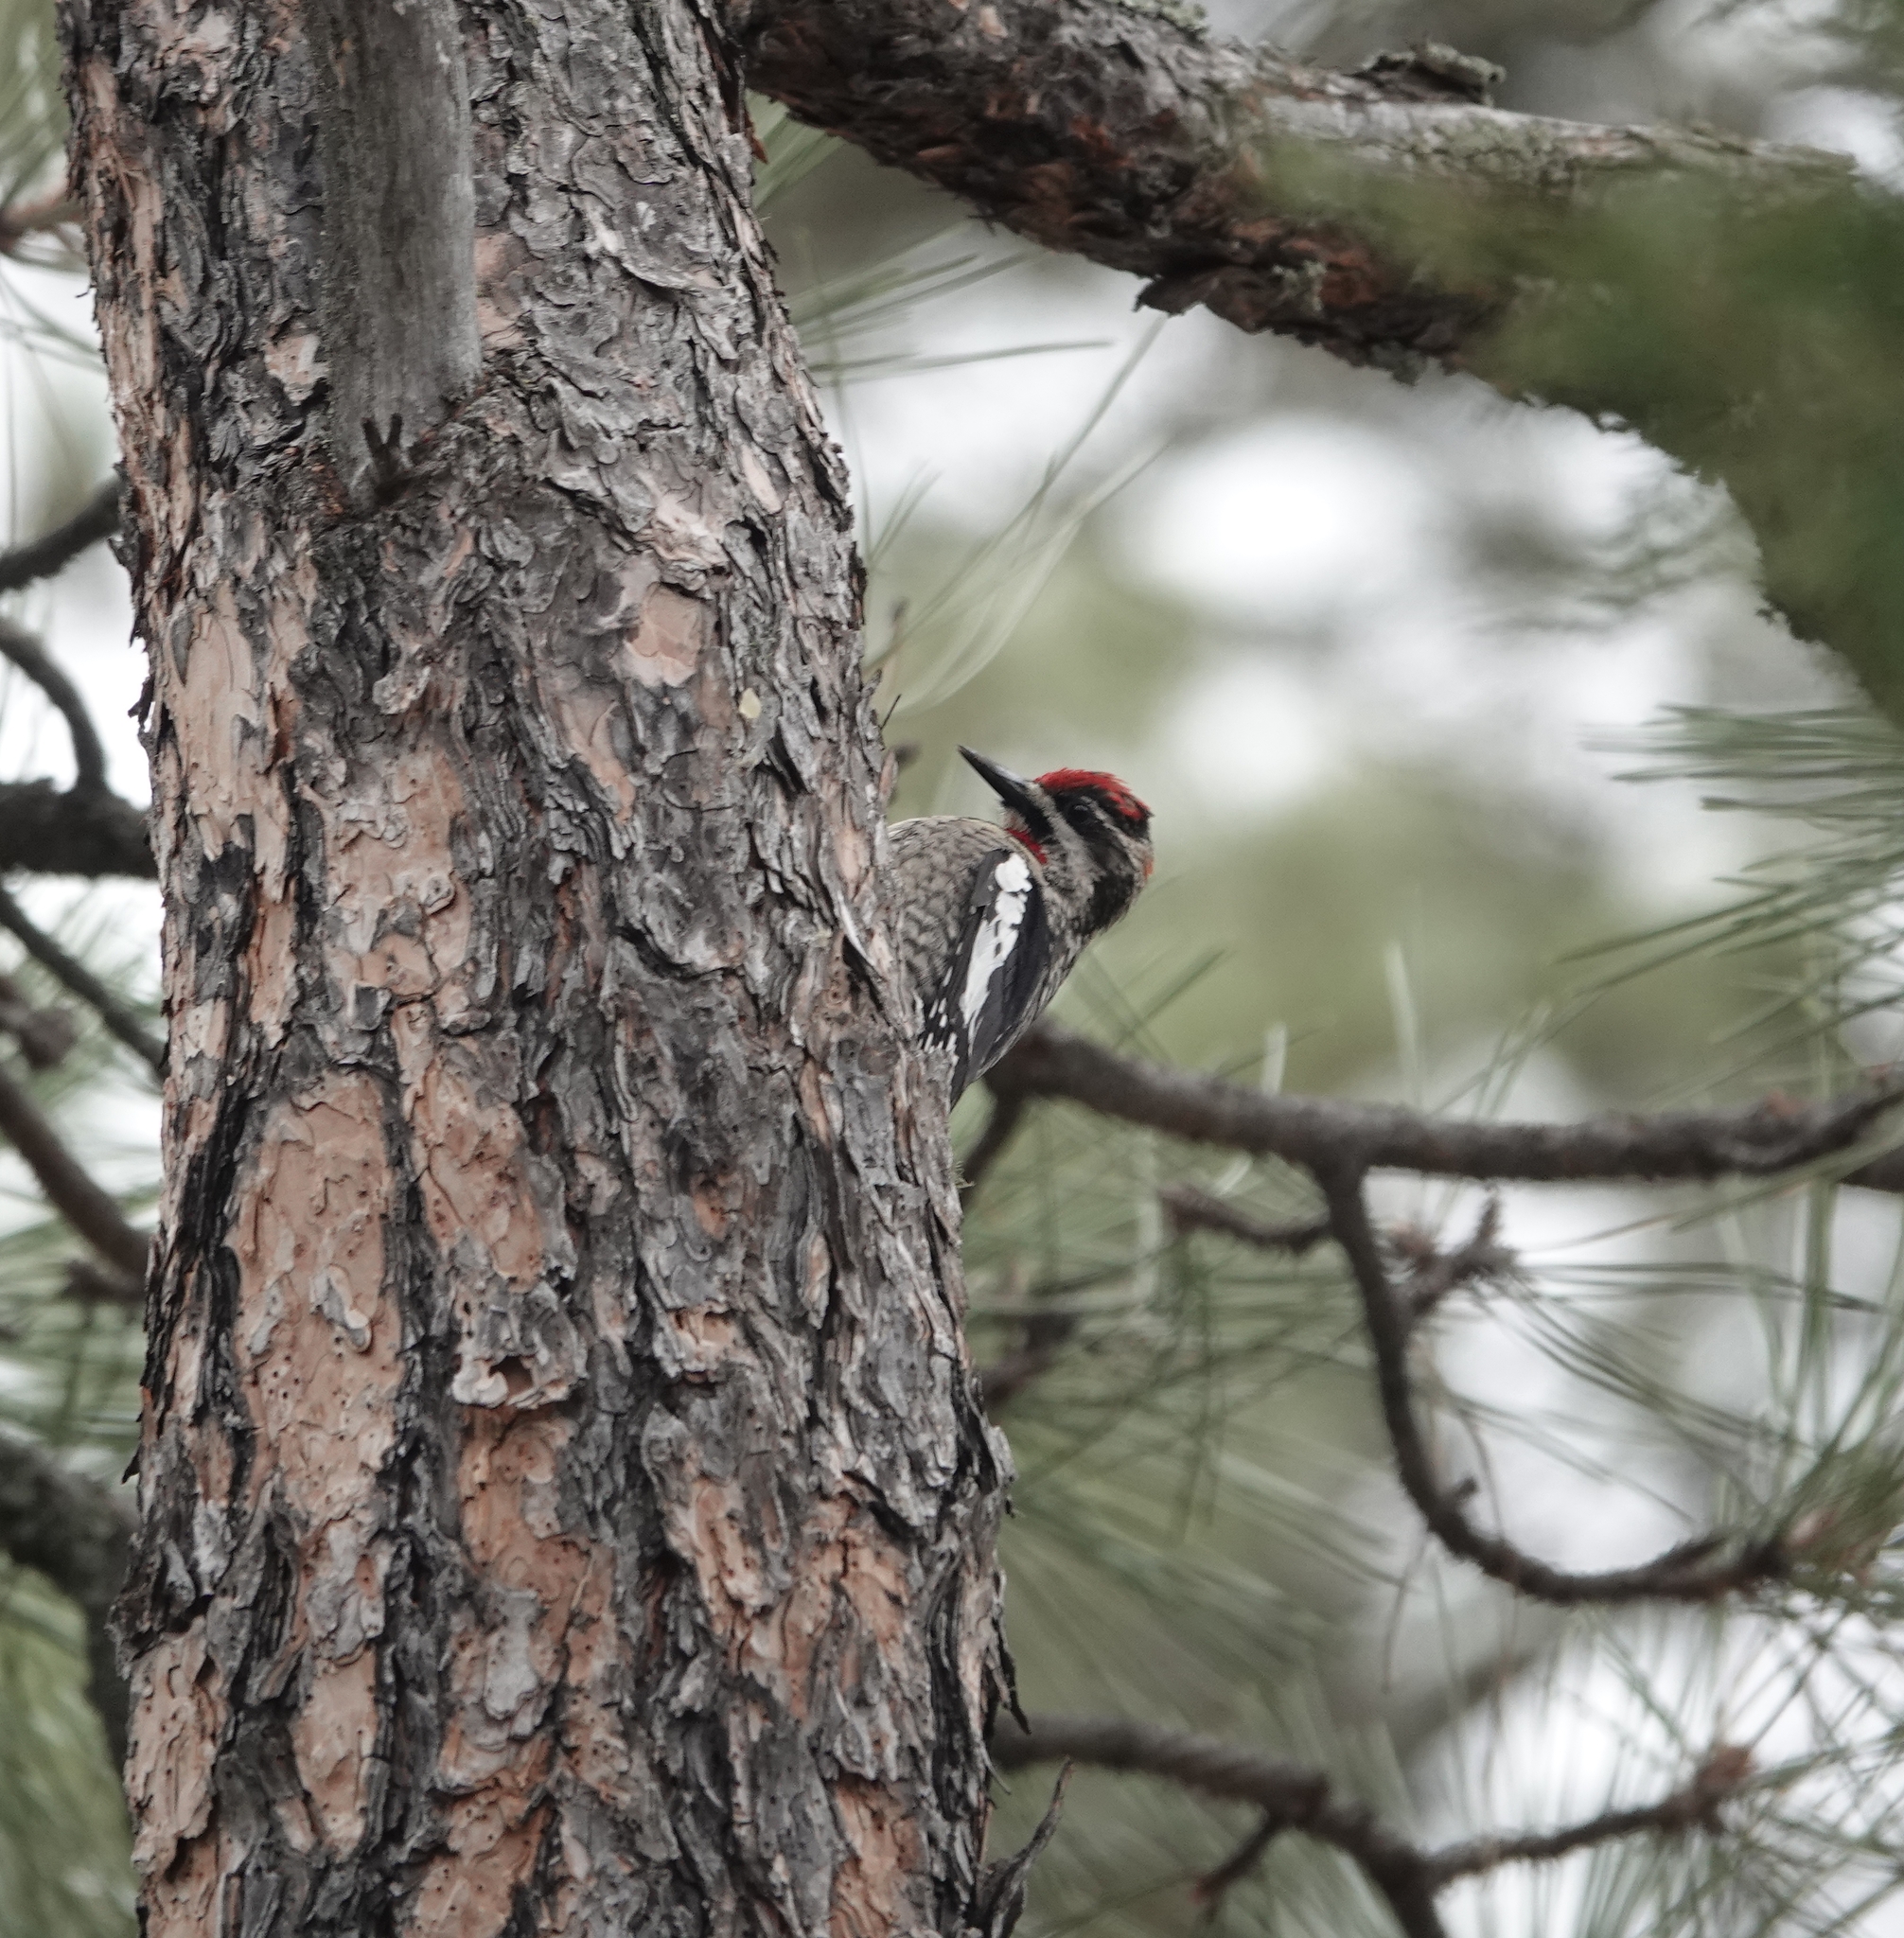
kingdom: Animalia
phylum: Chordata
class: Aves
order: Piciformes
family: Picidae
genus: Sphyrapicus
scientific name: Sphyrapicus nuchalis
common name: Red-naped sapsucker
